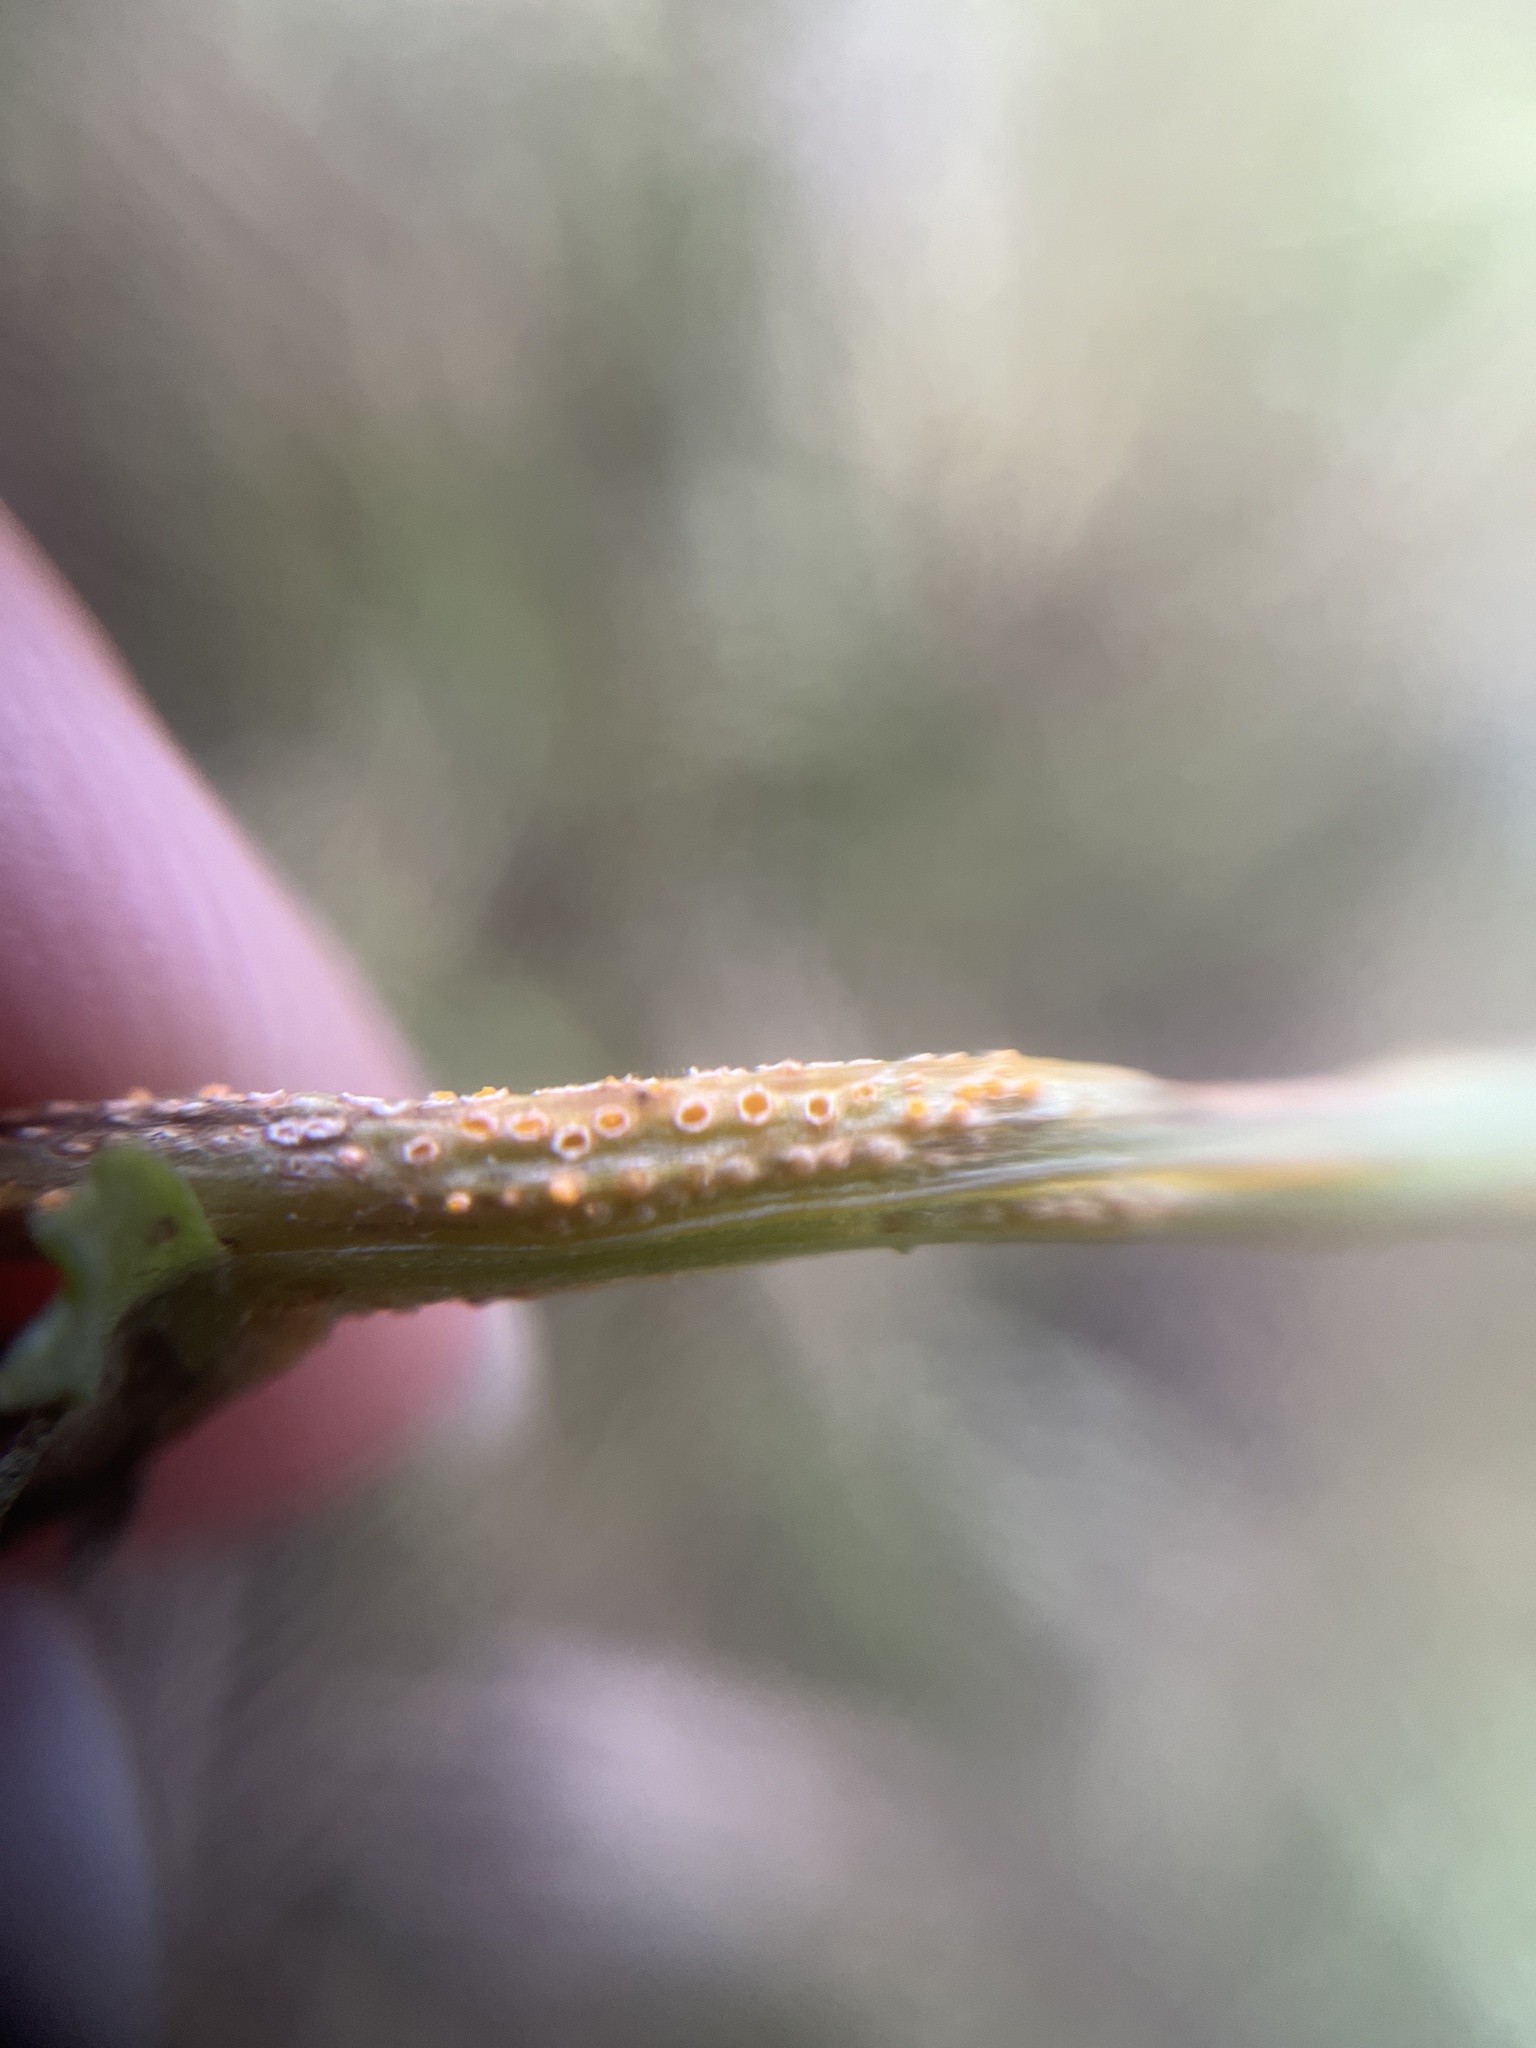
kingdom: Fungi
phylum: Basidiomycota
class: Pucciniomycetes
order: Pucciniales
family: Pucciniaceae
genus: Puccinia
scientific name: Puccinia lagenophorae
